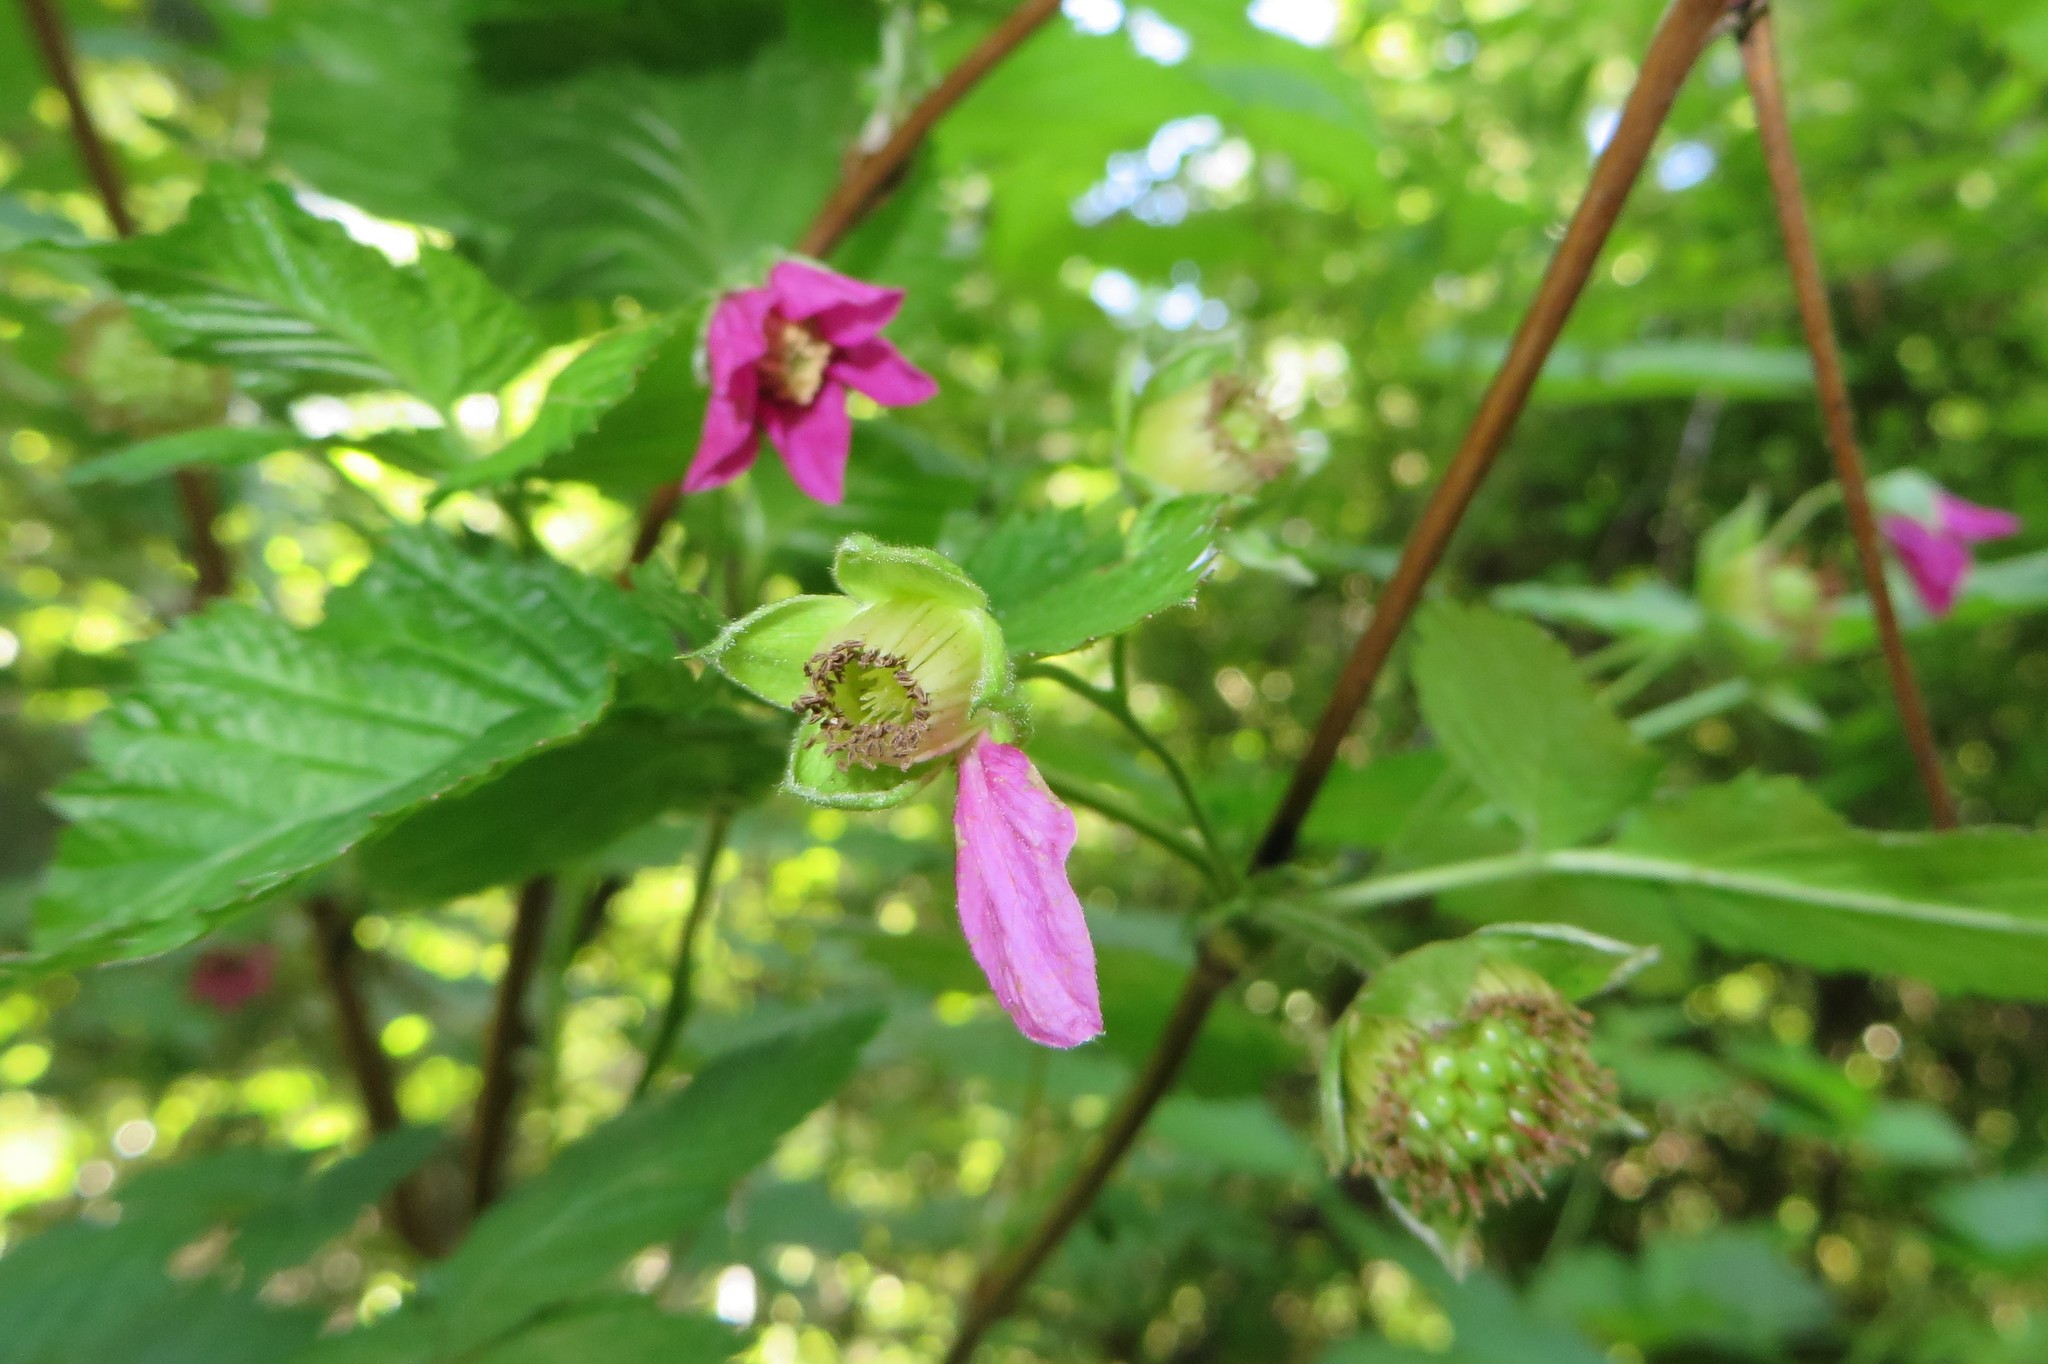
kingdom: Plantae
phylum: Tracheophyta
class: Magnoliopsida
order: Rosales
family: Rosaceae
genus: Rubus
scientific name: Rubus spectabilis
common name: Salmonberry
